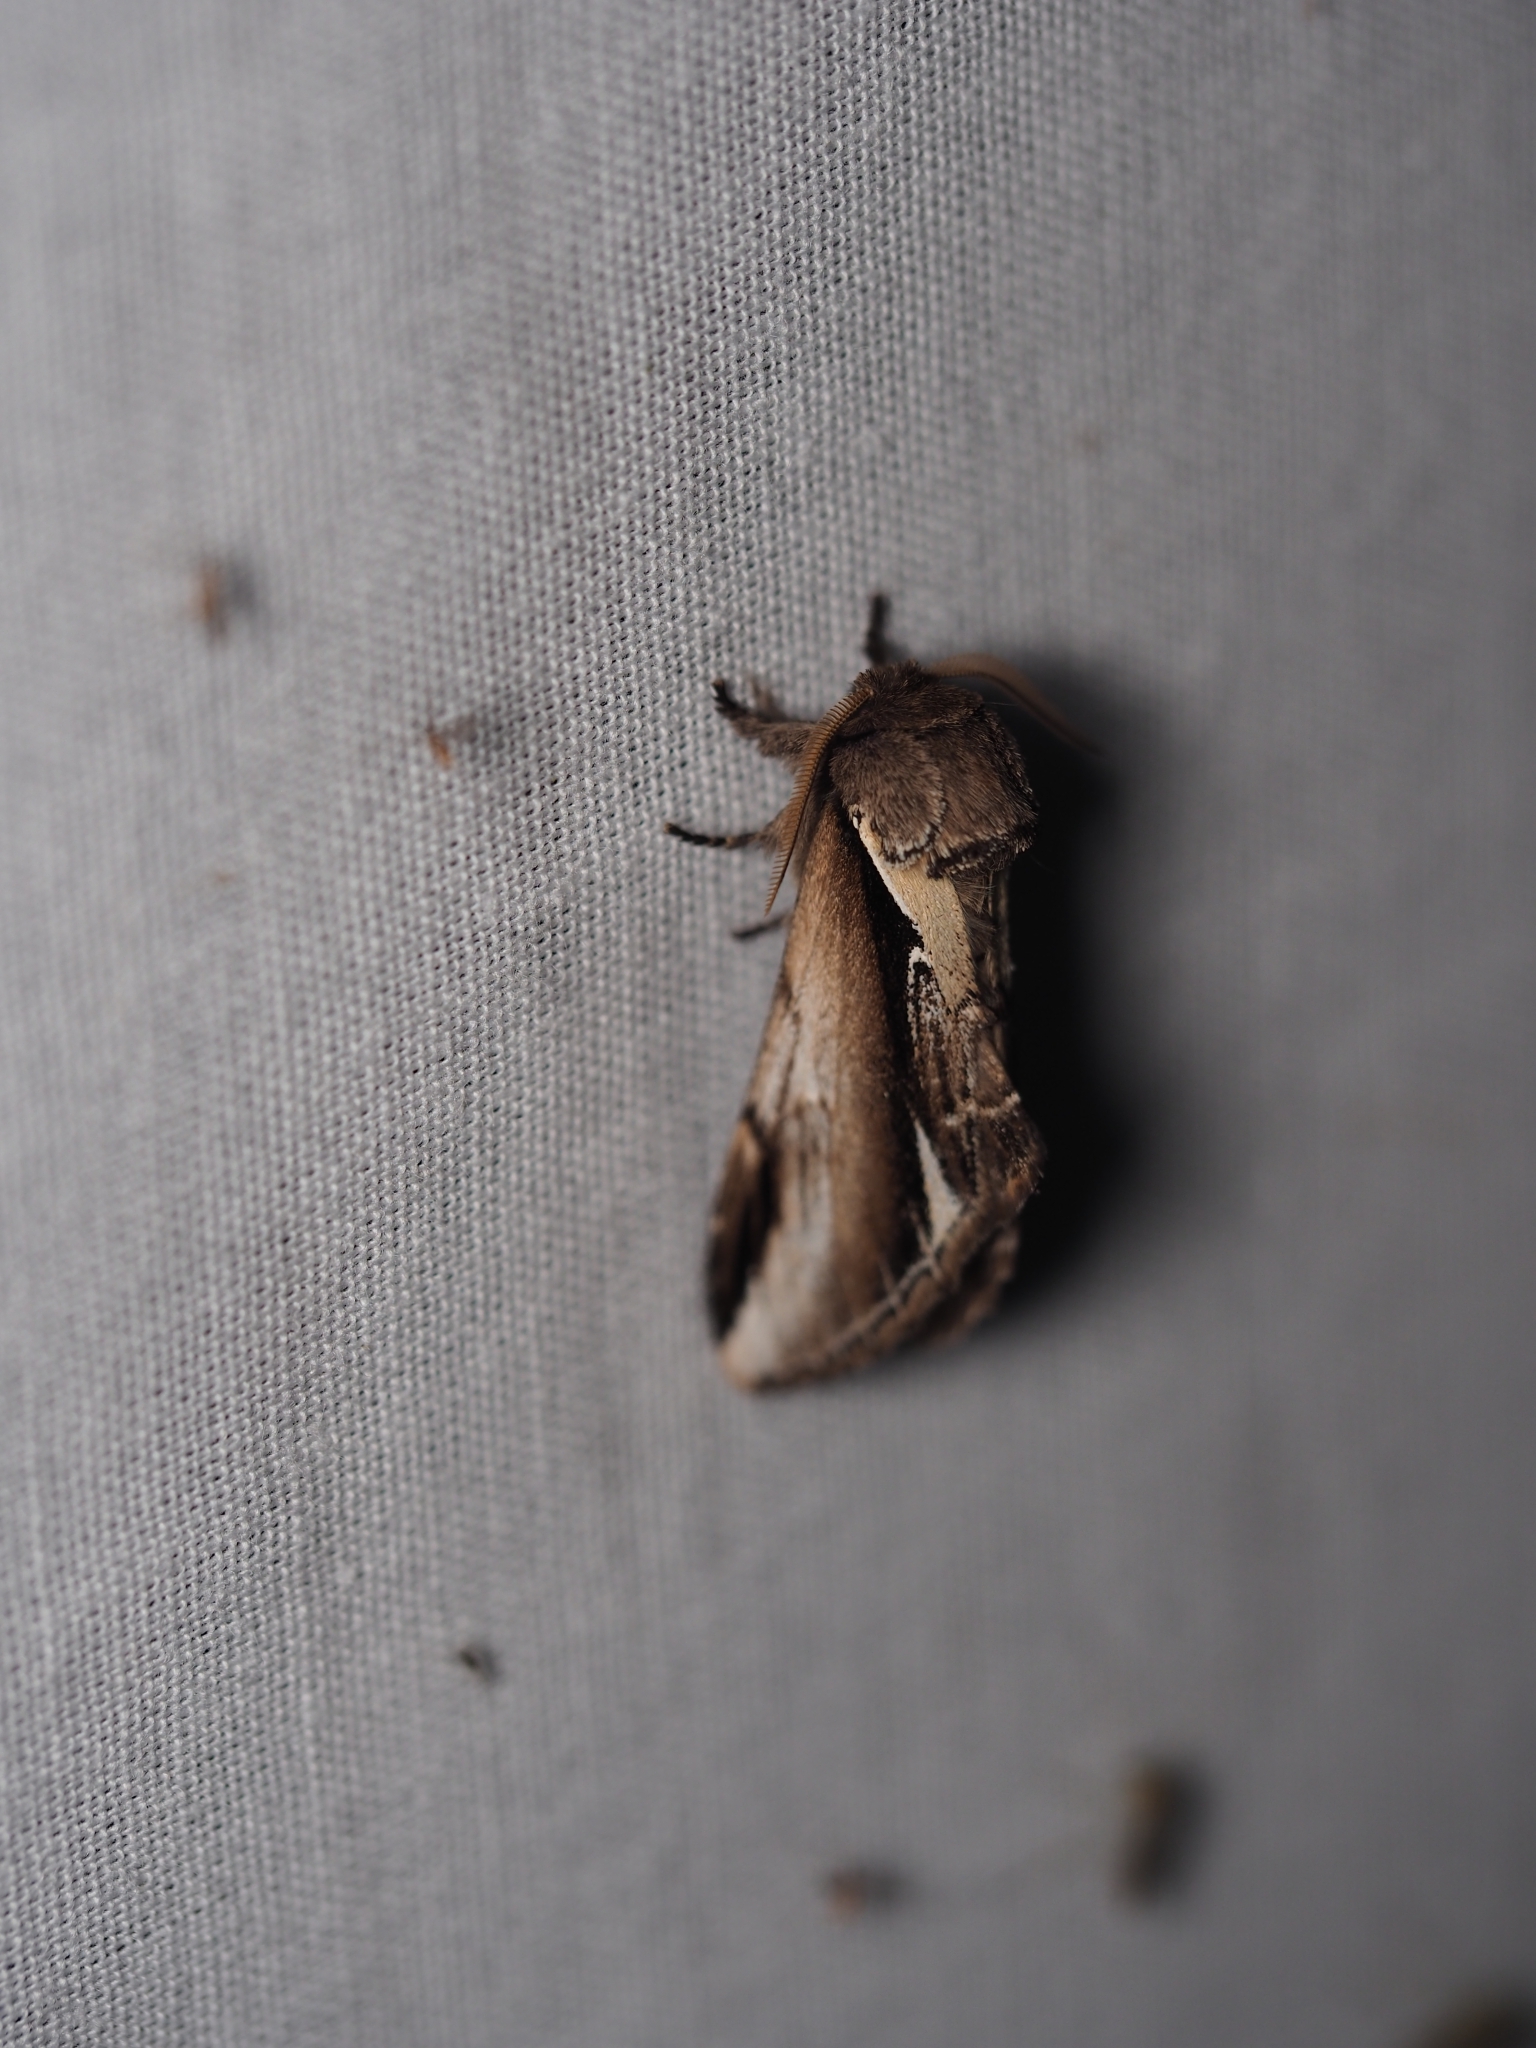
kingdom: Animalia
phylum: Arthropoda
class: Insecta
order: Lepidoptera
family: Notodontidae
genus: Pheosia
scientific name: Pheosia gnoma
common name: Lesser swallow prominent
